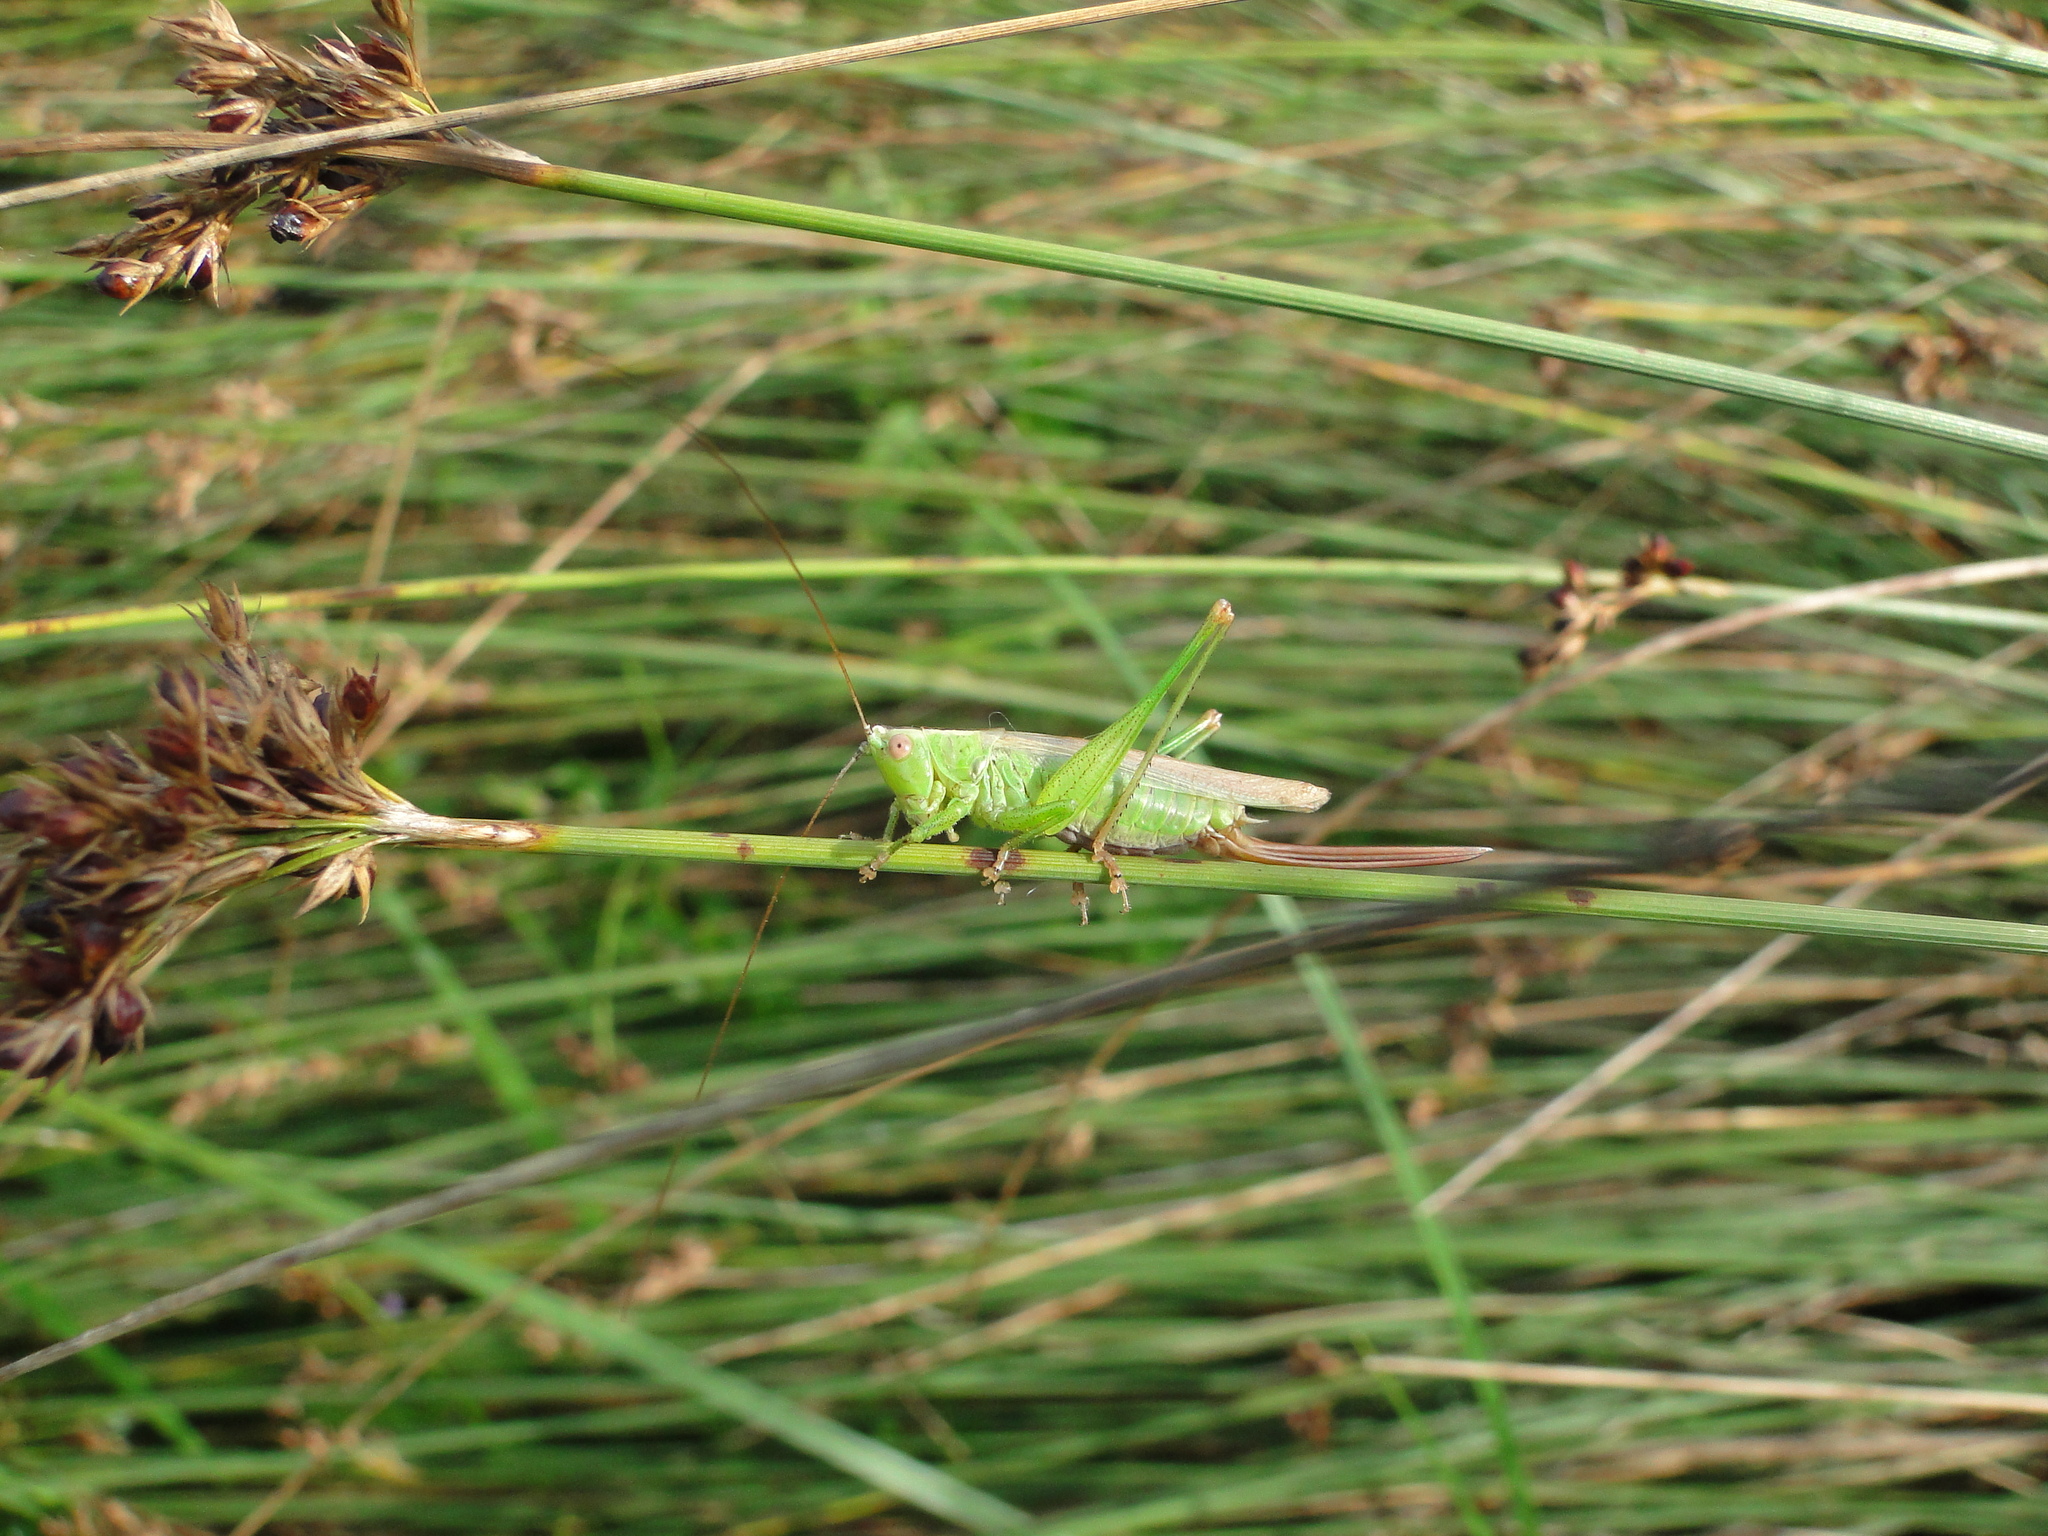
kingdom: Animalia
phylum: Arthropoda
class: Insecta
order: Orthoptera
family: Tettigoniidae
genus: Conocephalus
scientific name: Conocephalus fuscus
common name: Long-winged conehead
